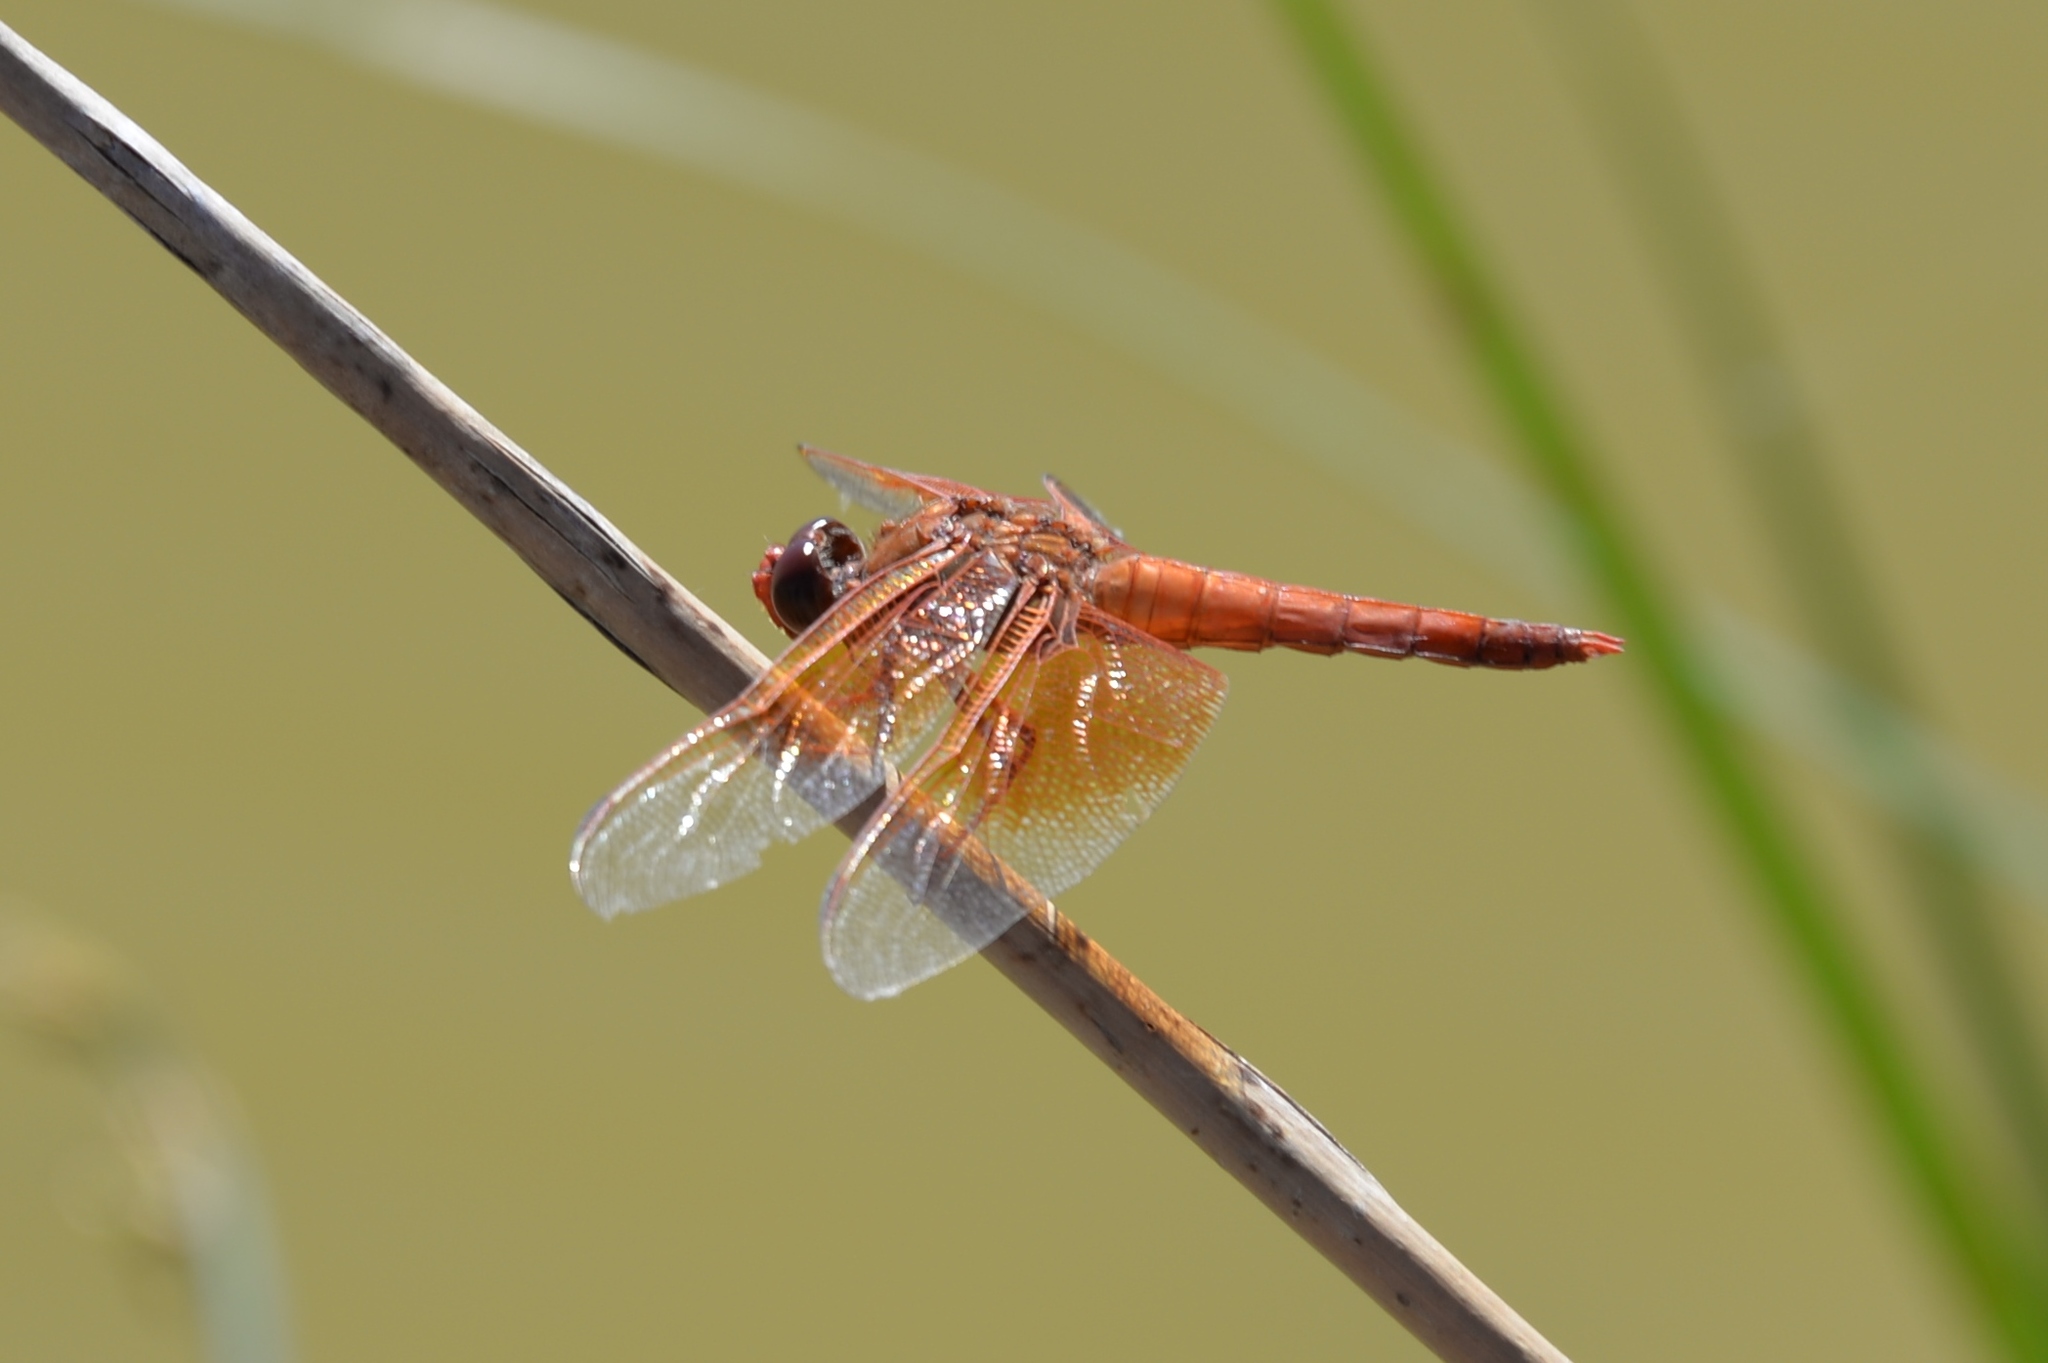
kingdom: Animalia
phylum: Arthropoda
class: Insecta
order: Odonata
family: Libellulidae
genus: Libellula
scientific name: Libellula saturata
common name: Flame skimmer
